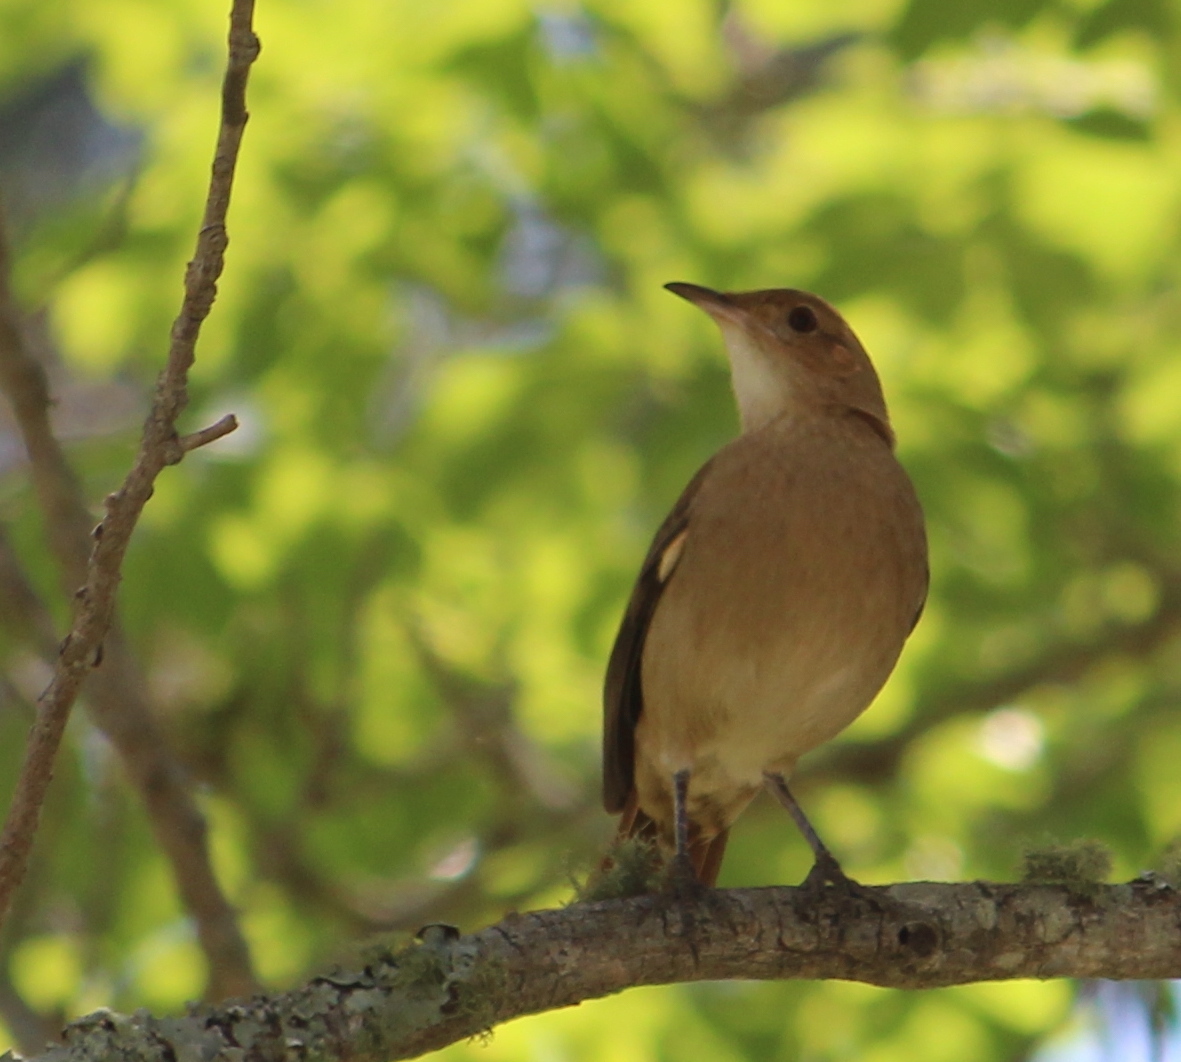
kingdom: Animalia
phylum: Chordata
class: Aves
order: Passeriformes
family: Furnariidae
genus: Furnarius
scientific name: Furnarius rufus
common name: Rufous hornero
